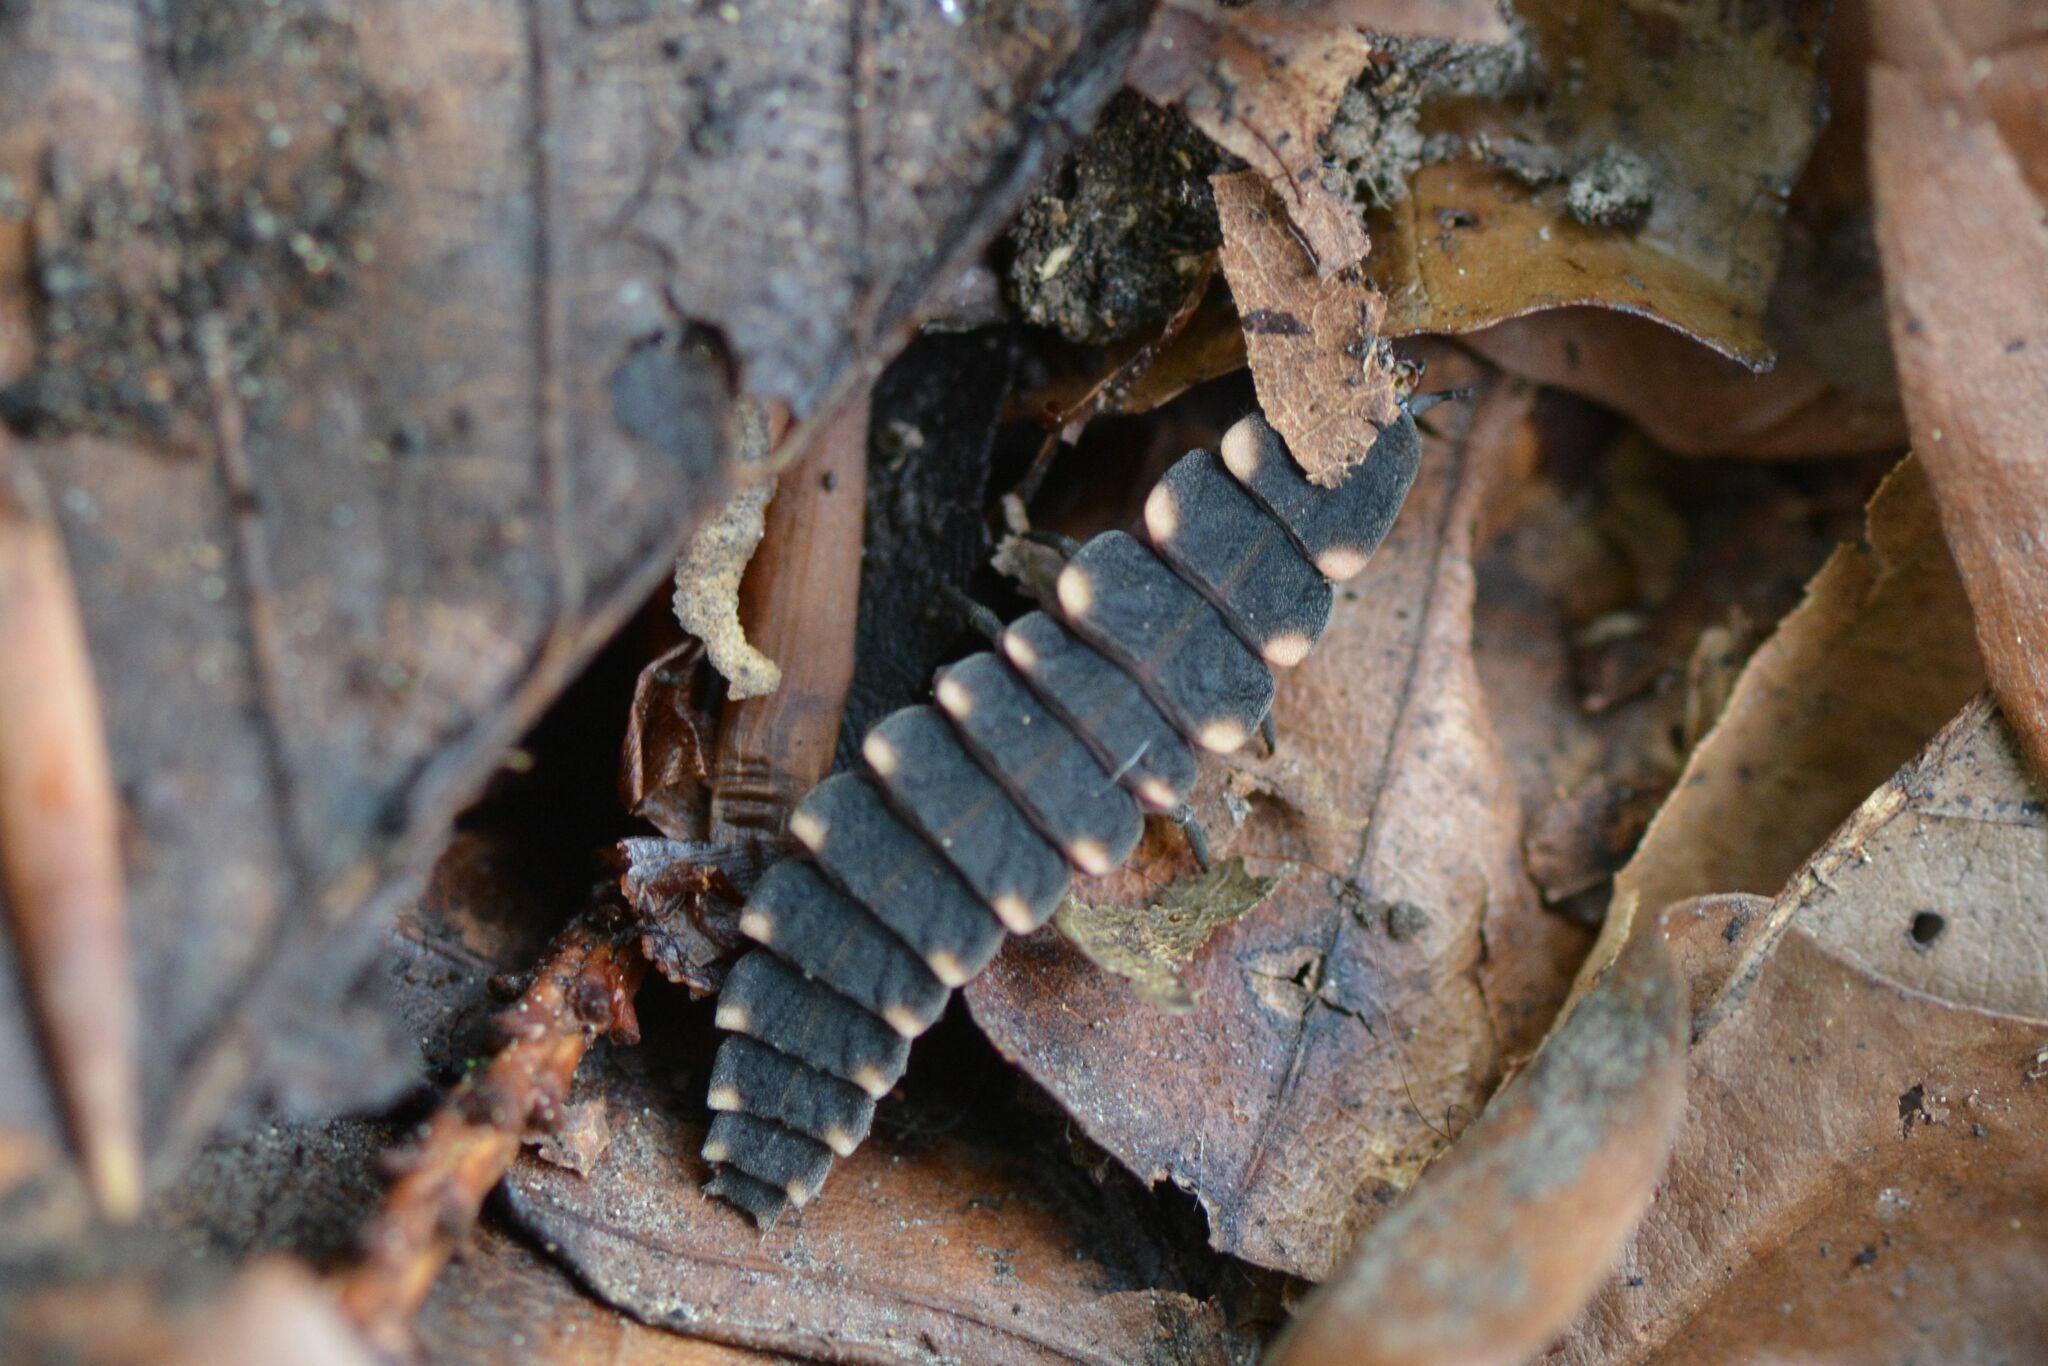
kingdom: Animalia
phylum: Arthropoda
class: Insecta
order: Coleoptera
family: Lampyridae
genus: Lampyris
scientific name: Lampyris noctiluca
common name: Glow-worm
